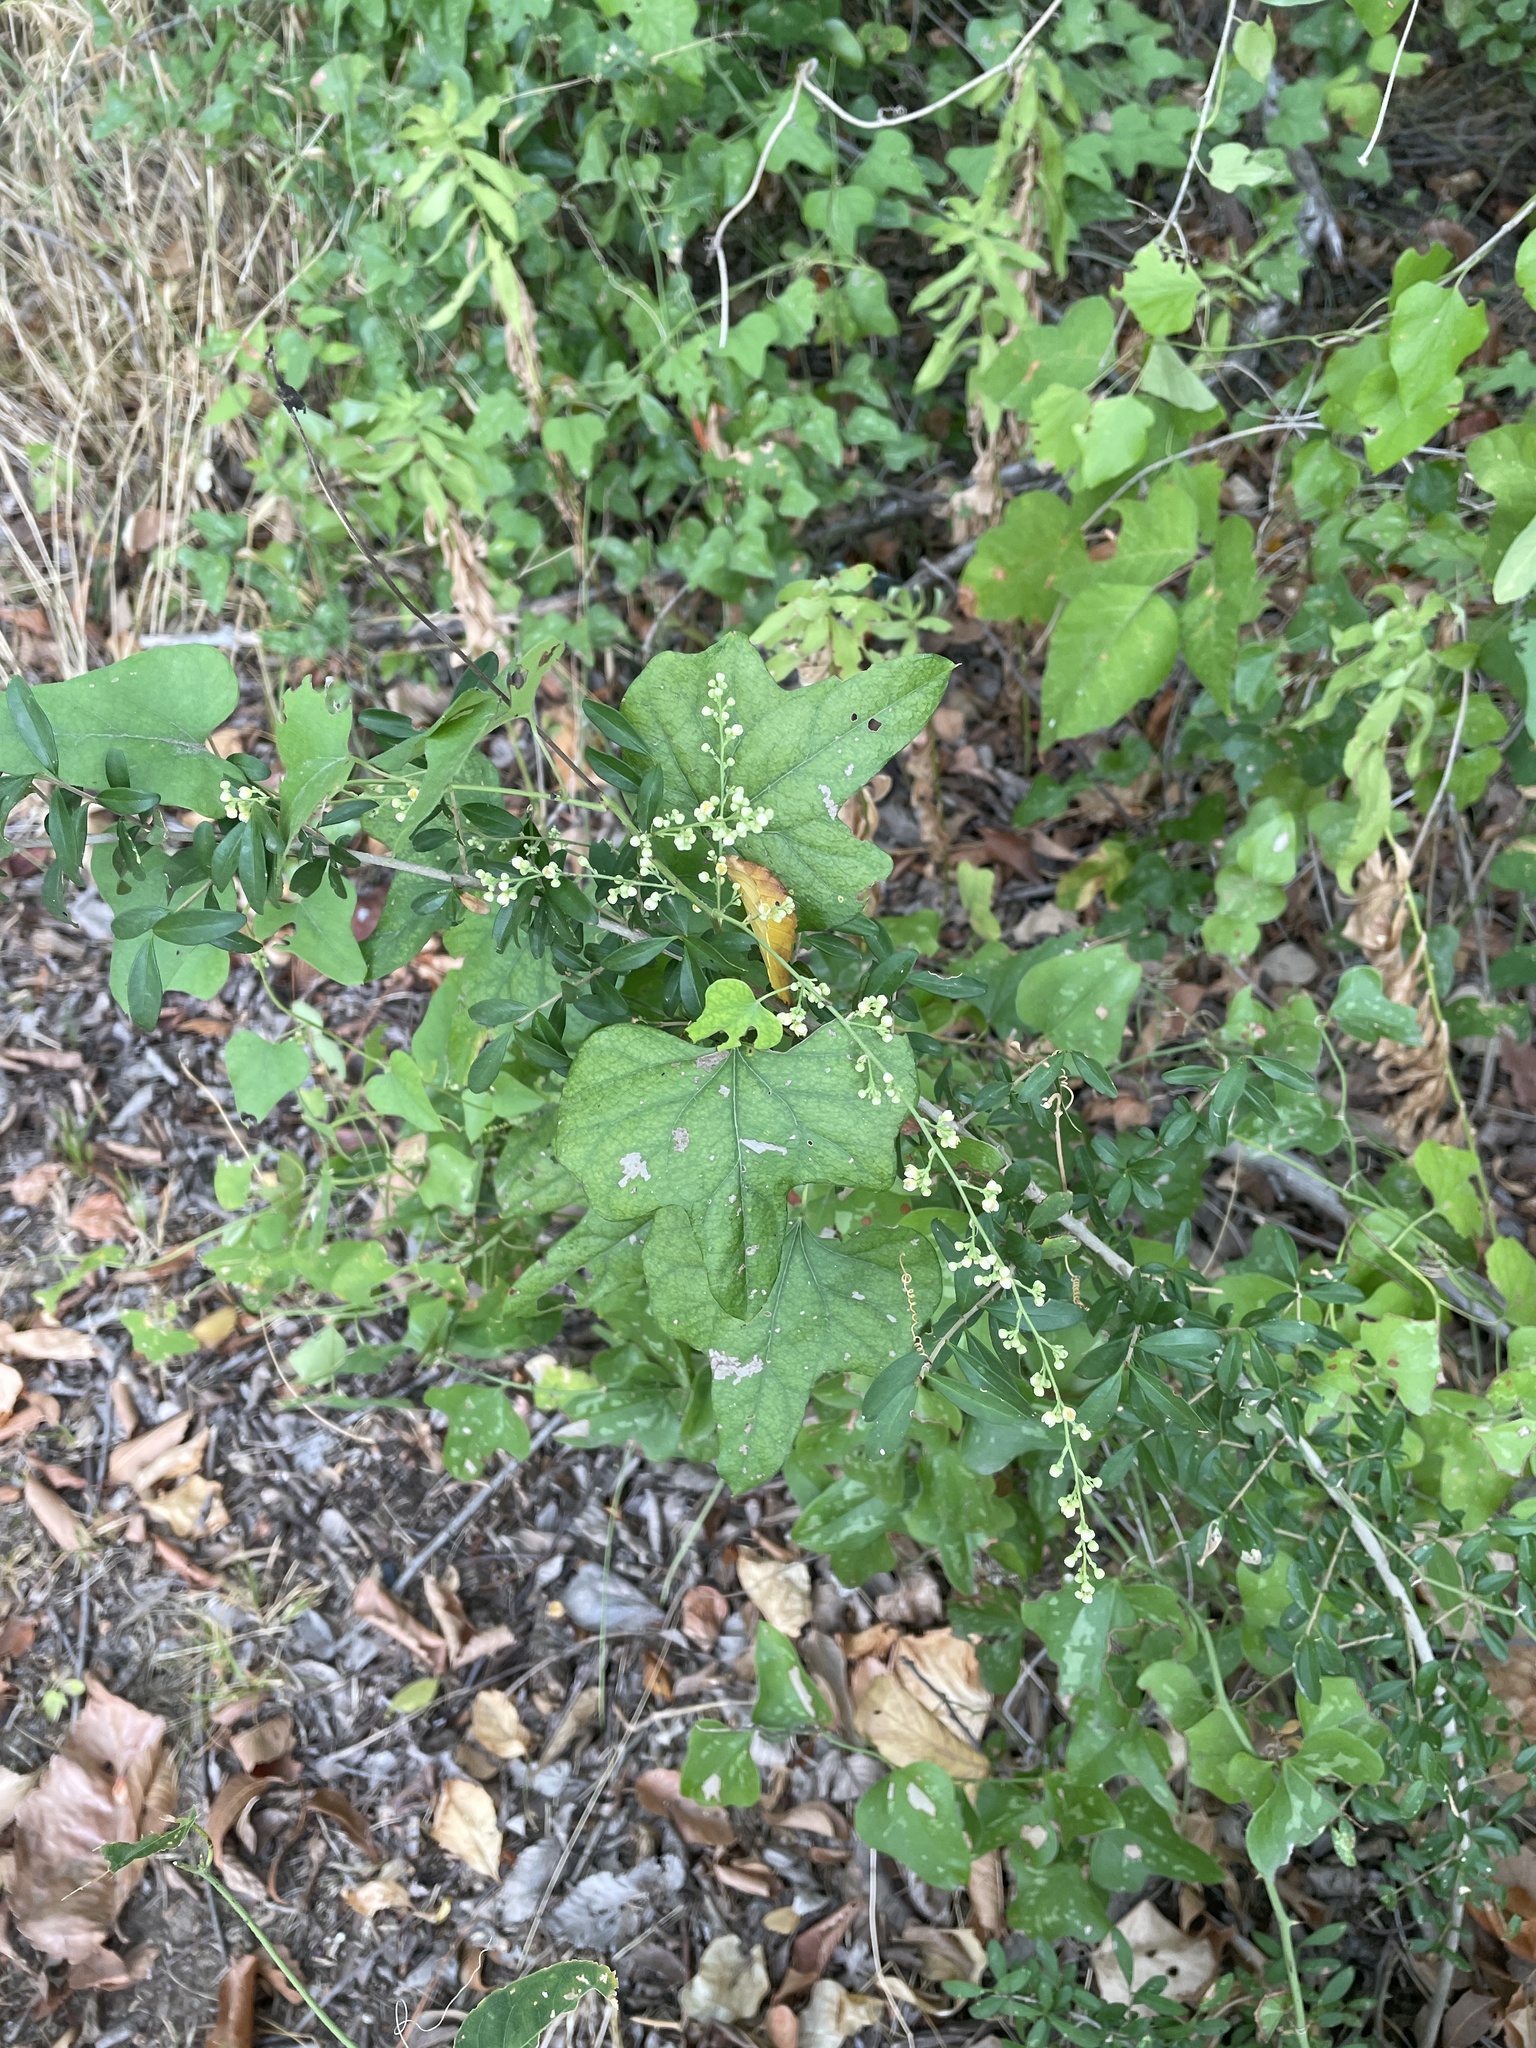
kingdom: Plantae
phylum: Tracheophyta
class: Magnoliopsida
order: Ranunculales
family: Menispermaceae
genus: Cocculus
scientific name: Cocculus carolinus
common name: Carolina moonseed
